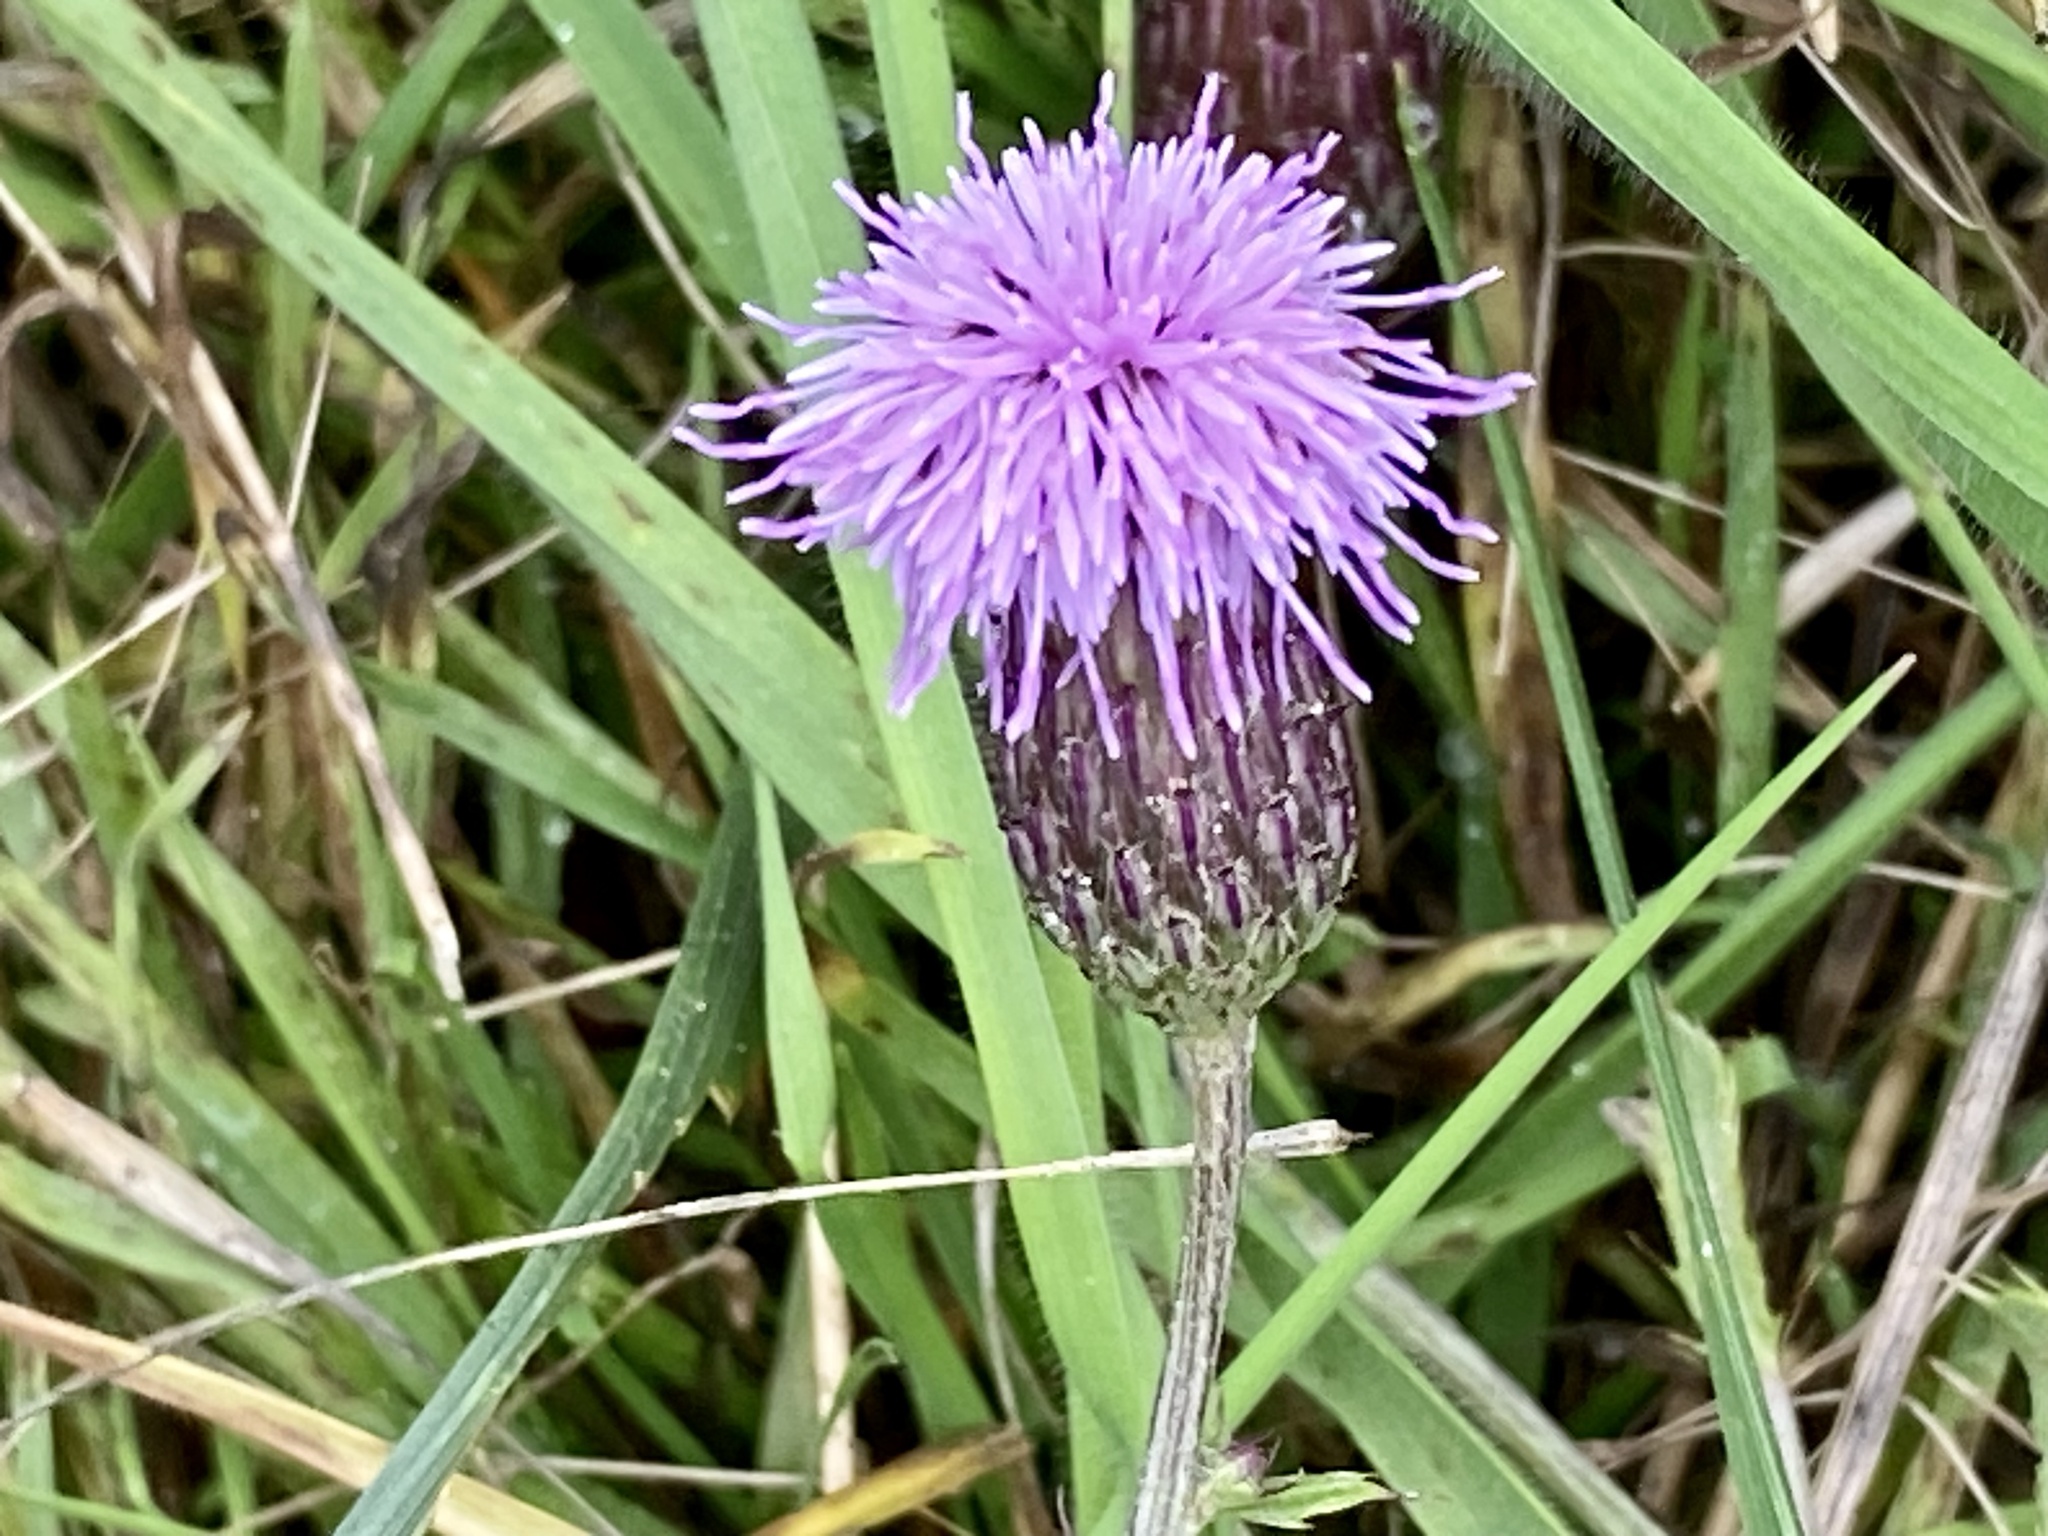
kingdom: Plantae
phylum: Tracheophyta
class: Magnoliopsida
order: Asterales
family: Asteraceae
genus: Cirsium
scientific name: Cirsium arvense
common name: Creeping thistle
